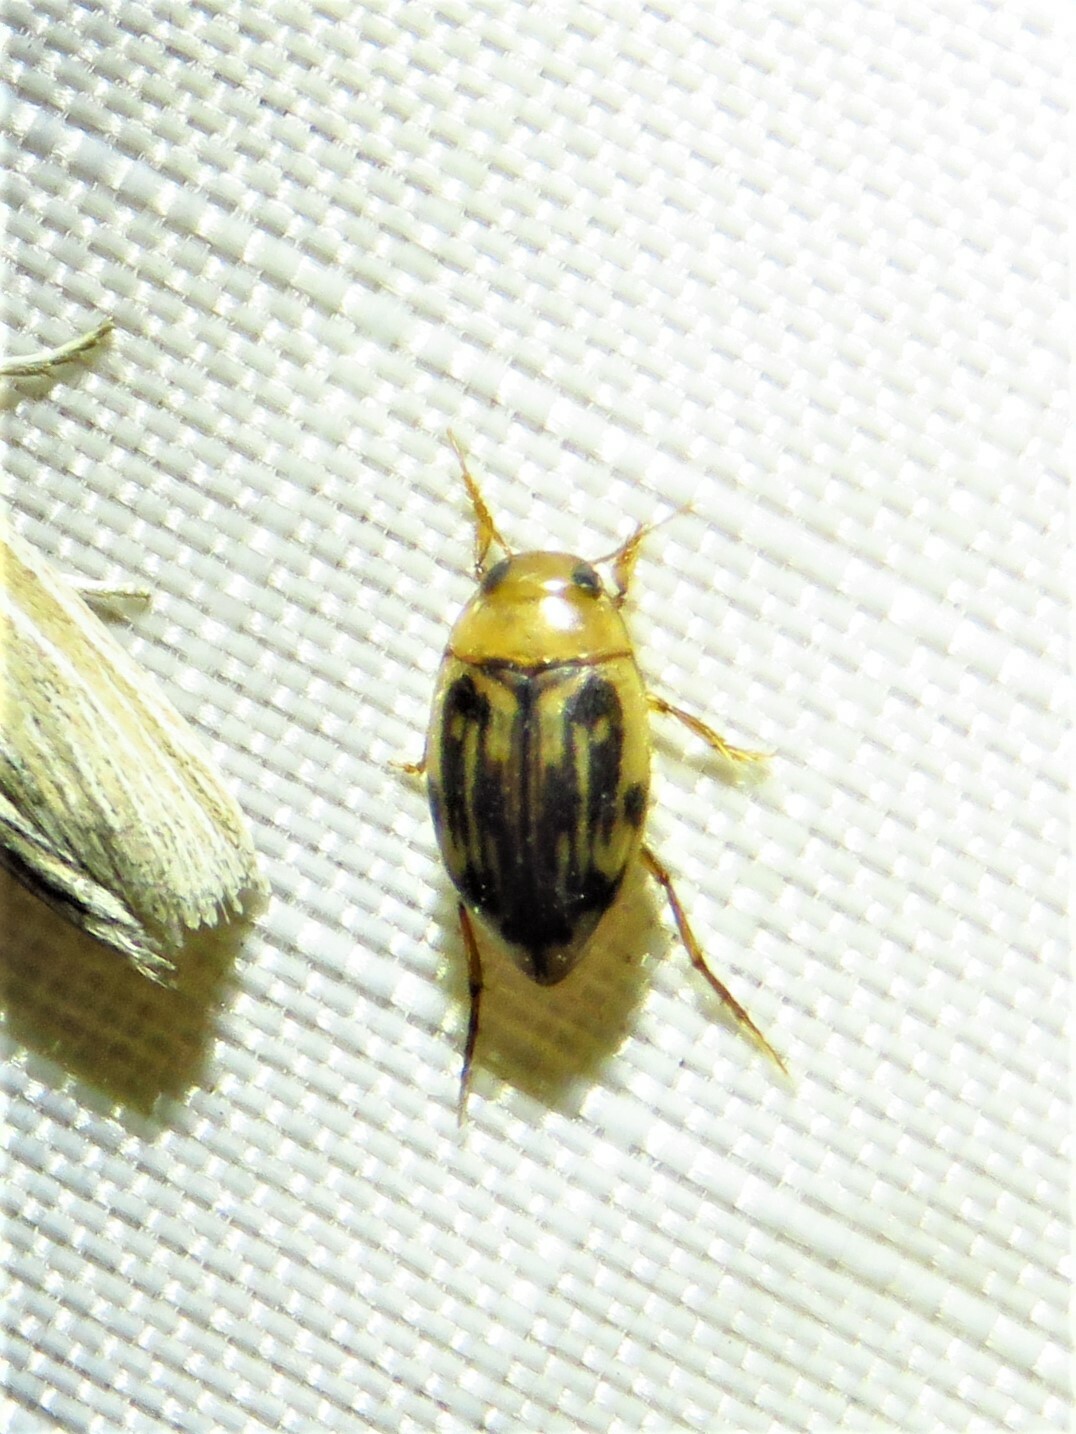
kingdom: Animalia
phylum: Arthropoda
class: Insecta
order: Coleoptera
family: Dytiscidae
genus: Neoporus
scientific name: Neoporus dimidiatus
